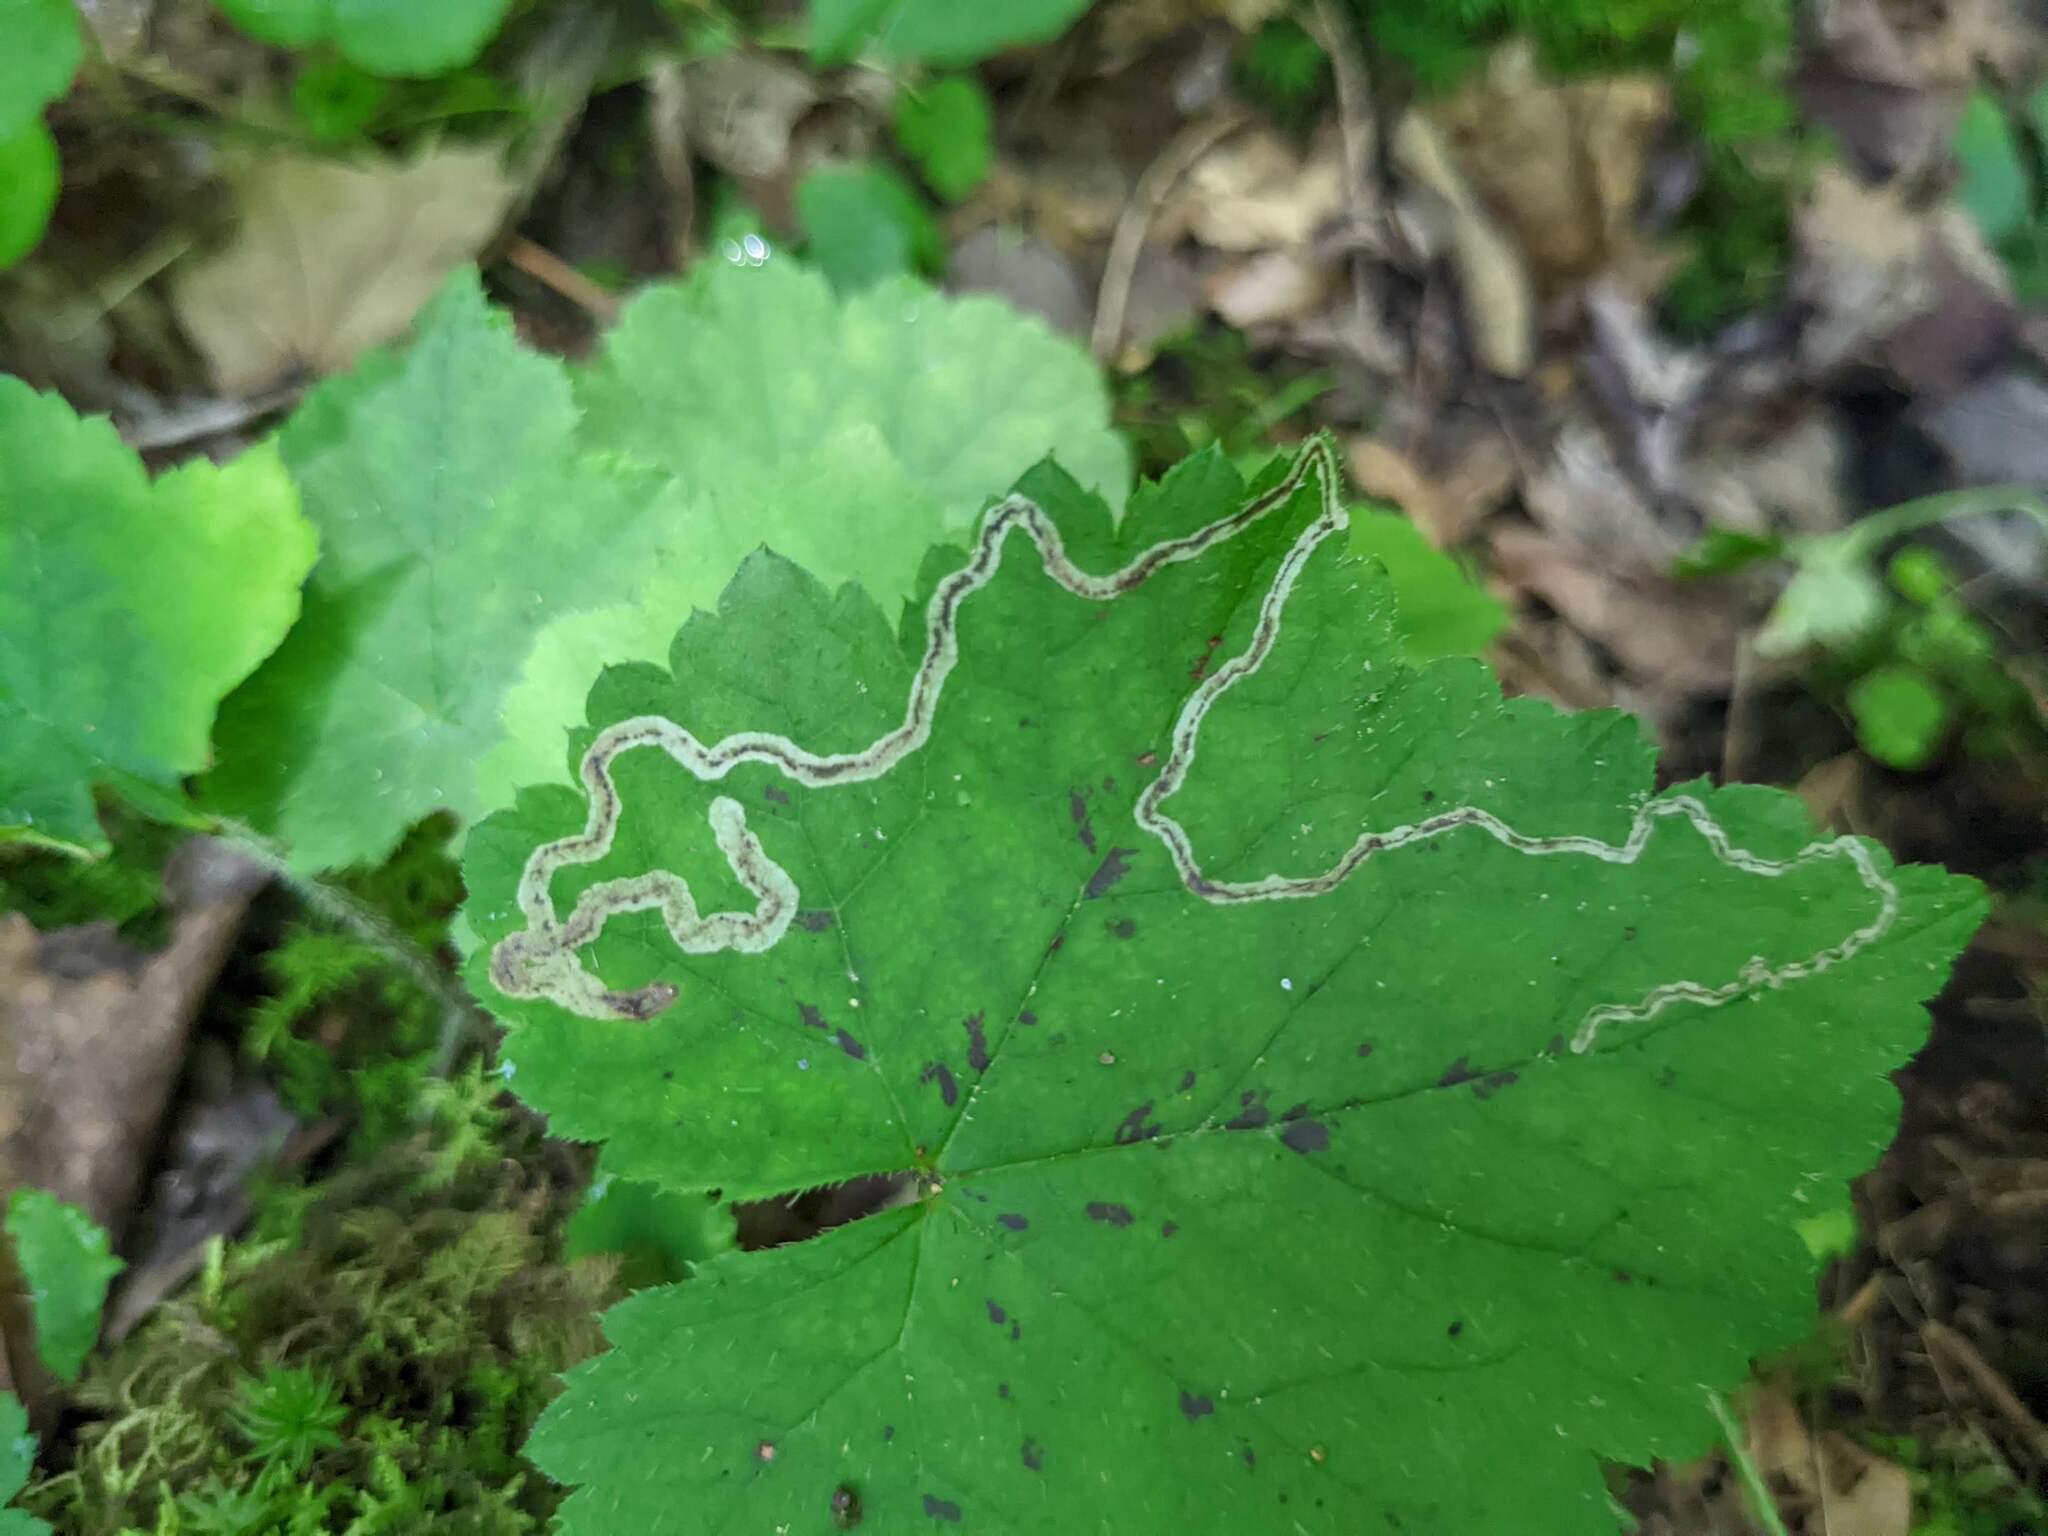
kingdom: Animalia
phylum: Arthropoda
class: Insecta
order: Diptera
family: Agromyzidae
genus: Phytomyza
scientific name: Phytomyza tigris
